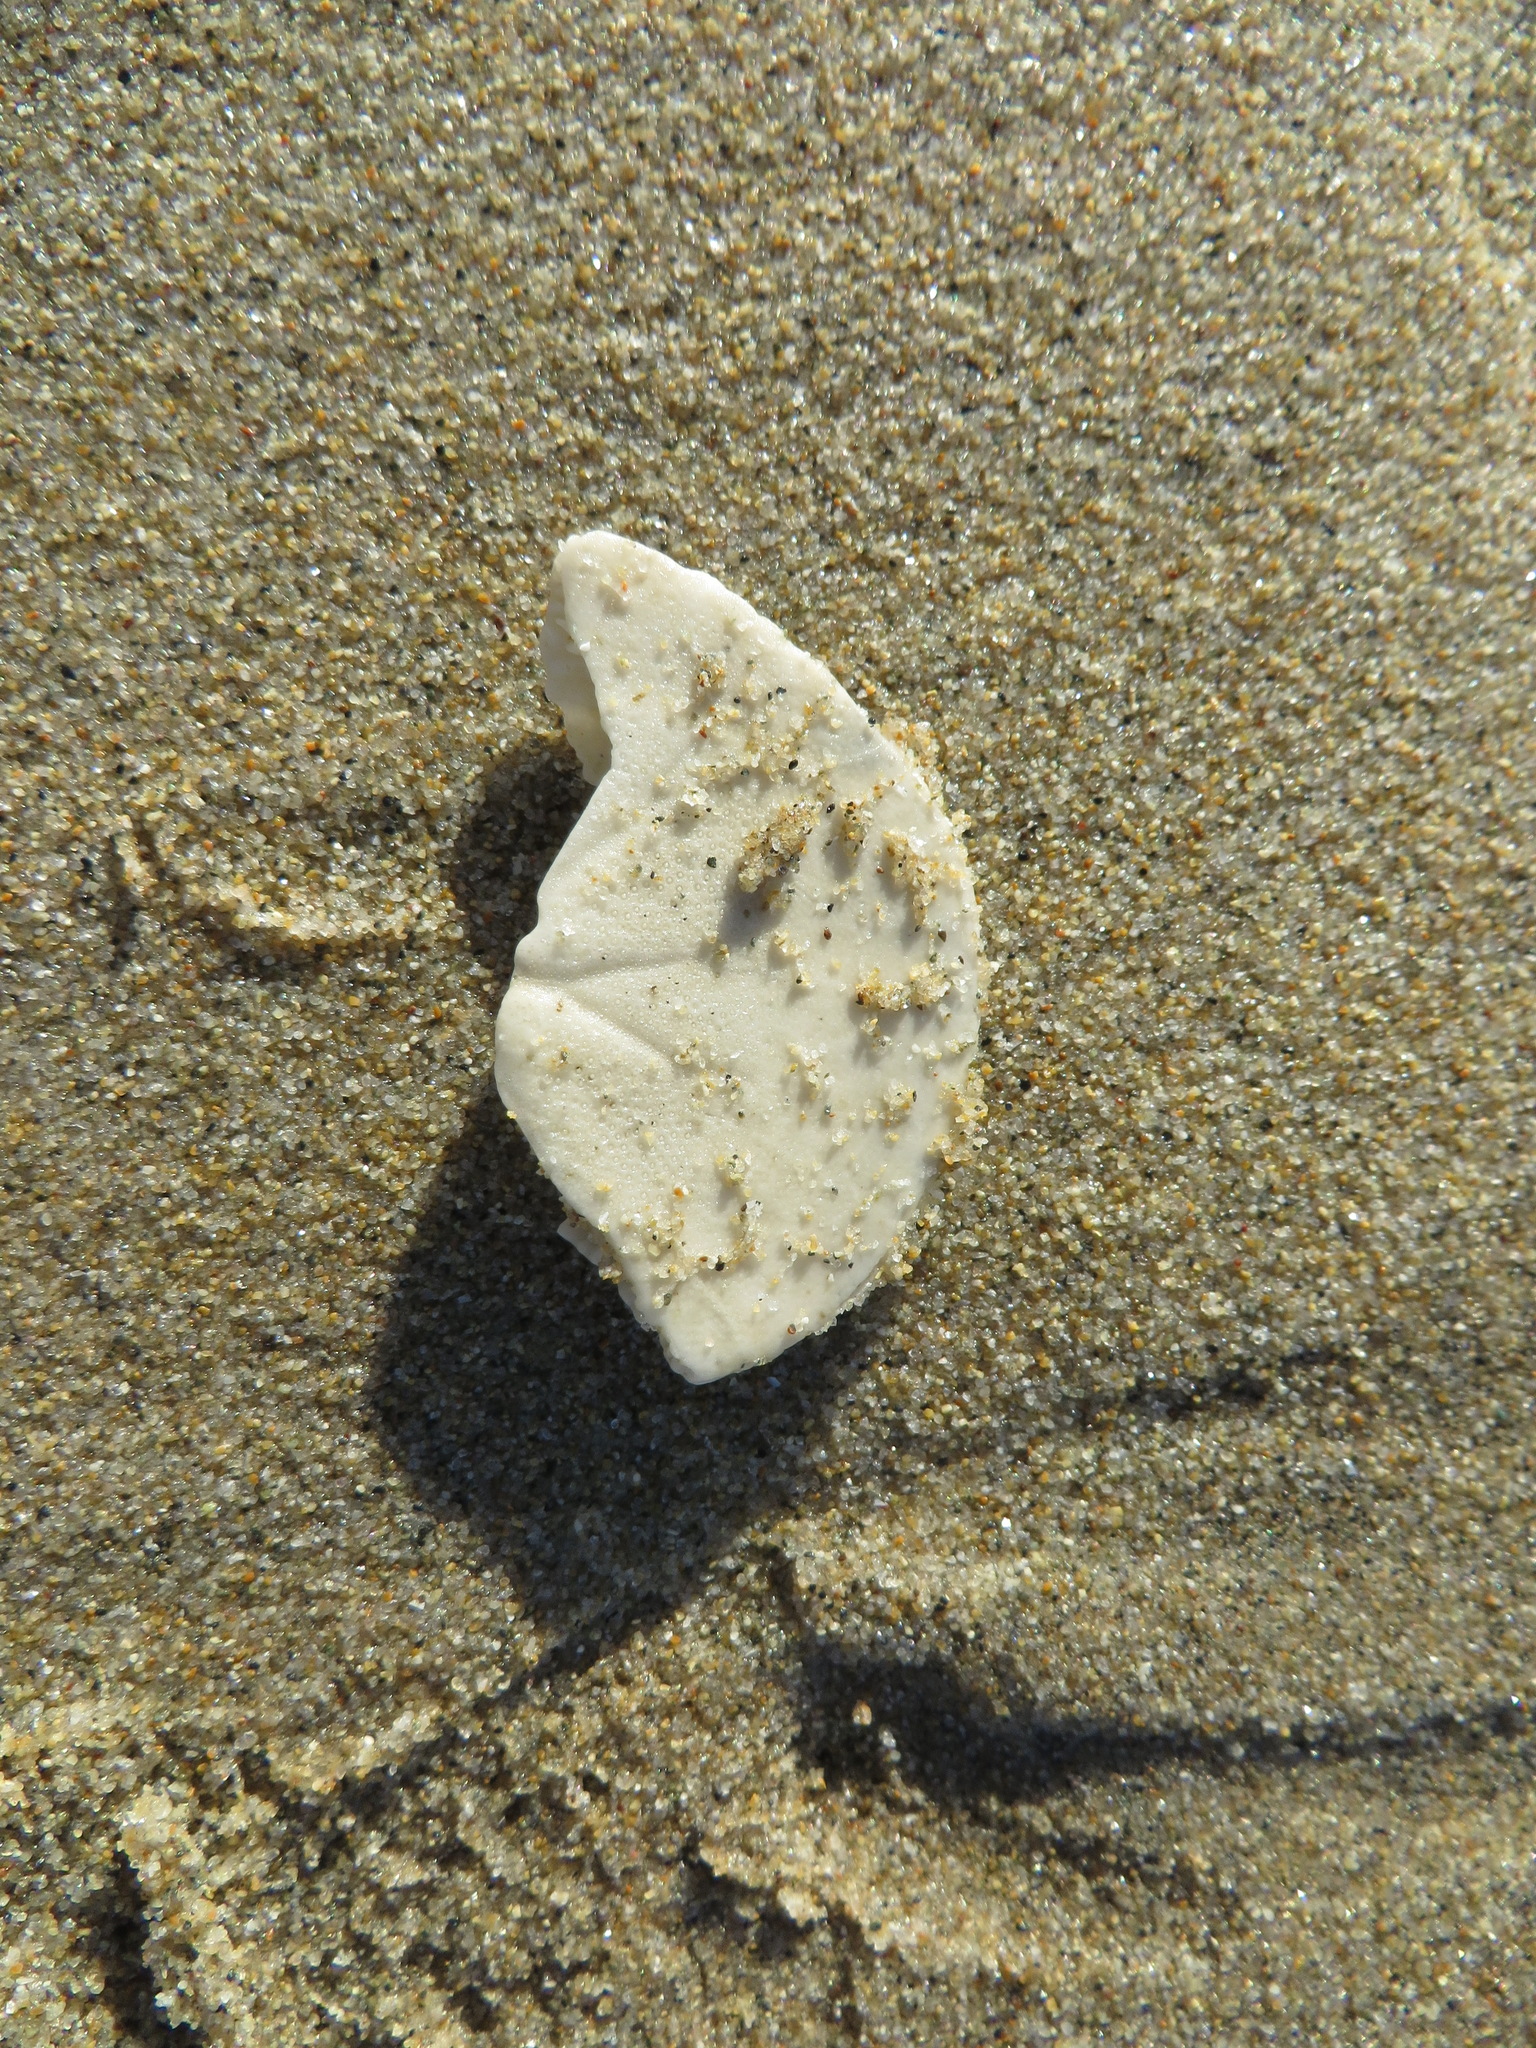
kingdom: Animalia
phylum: Echinodermata
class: Echinoidea
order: Echinolampadacea
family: Dendrasteridae
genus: Dendraster
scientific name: Dendraster excentricus
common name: Eccentric sand dollar sea urchin
